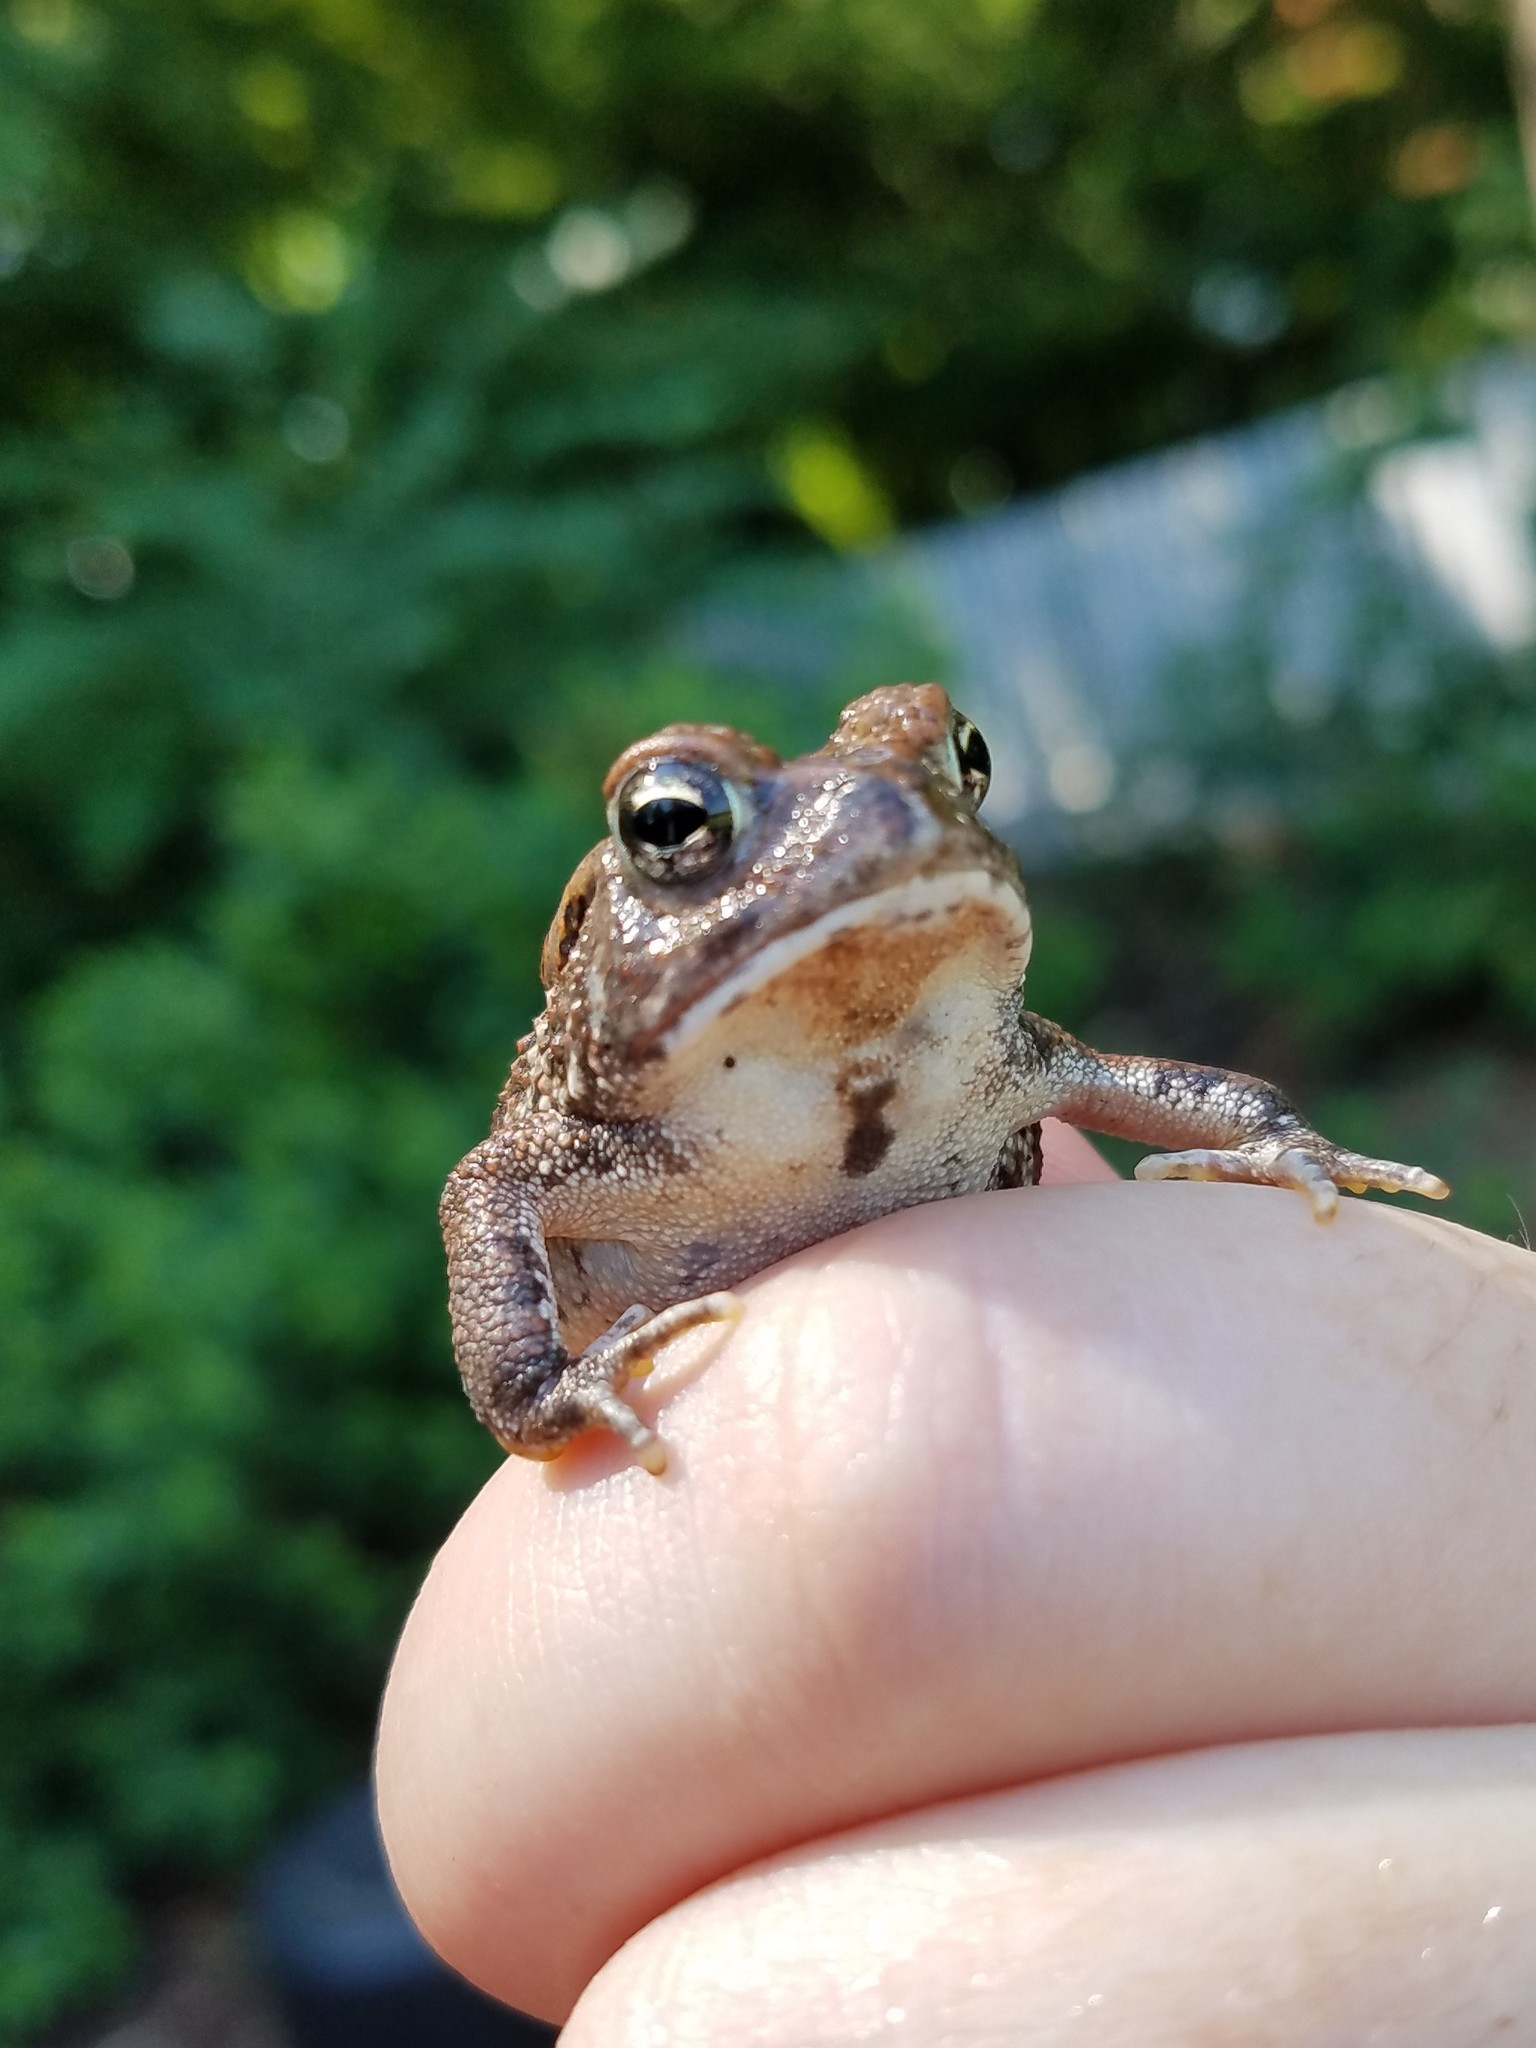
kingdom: Animalia
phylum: Chordata
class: Amphibia
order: Anura
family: Bufonidae
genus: Anaxyrus
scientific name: Anaxyrus fowleri
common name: Fowler's toad
